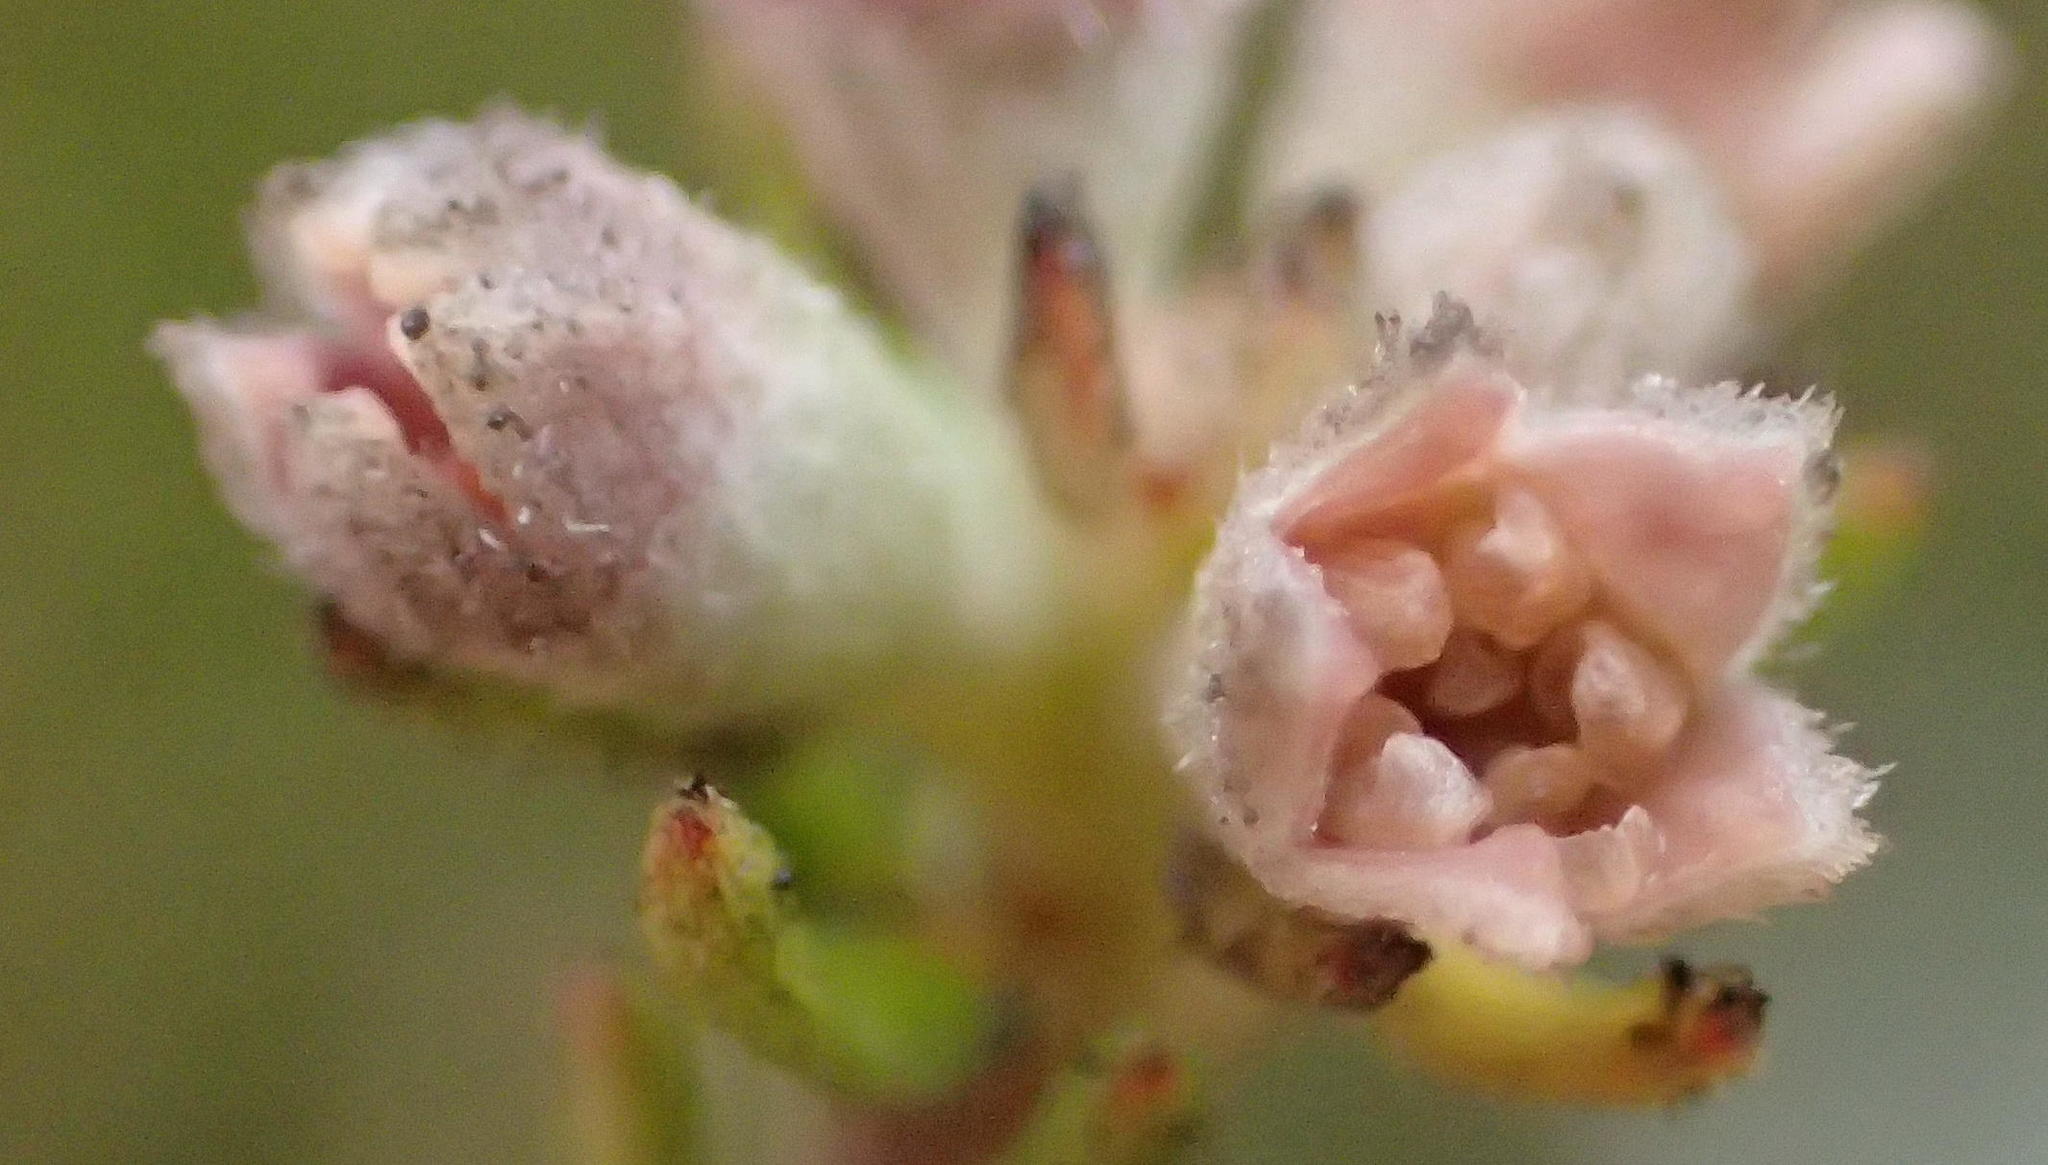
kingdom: Plantae
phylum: Tracheophyta
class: Magnoliopsida
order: Rosales
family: Rhamnaceae
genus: Phylica
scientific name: Phylica lanata
